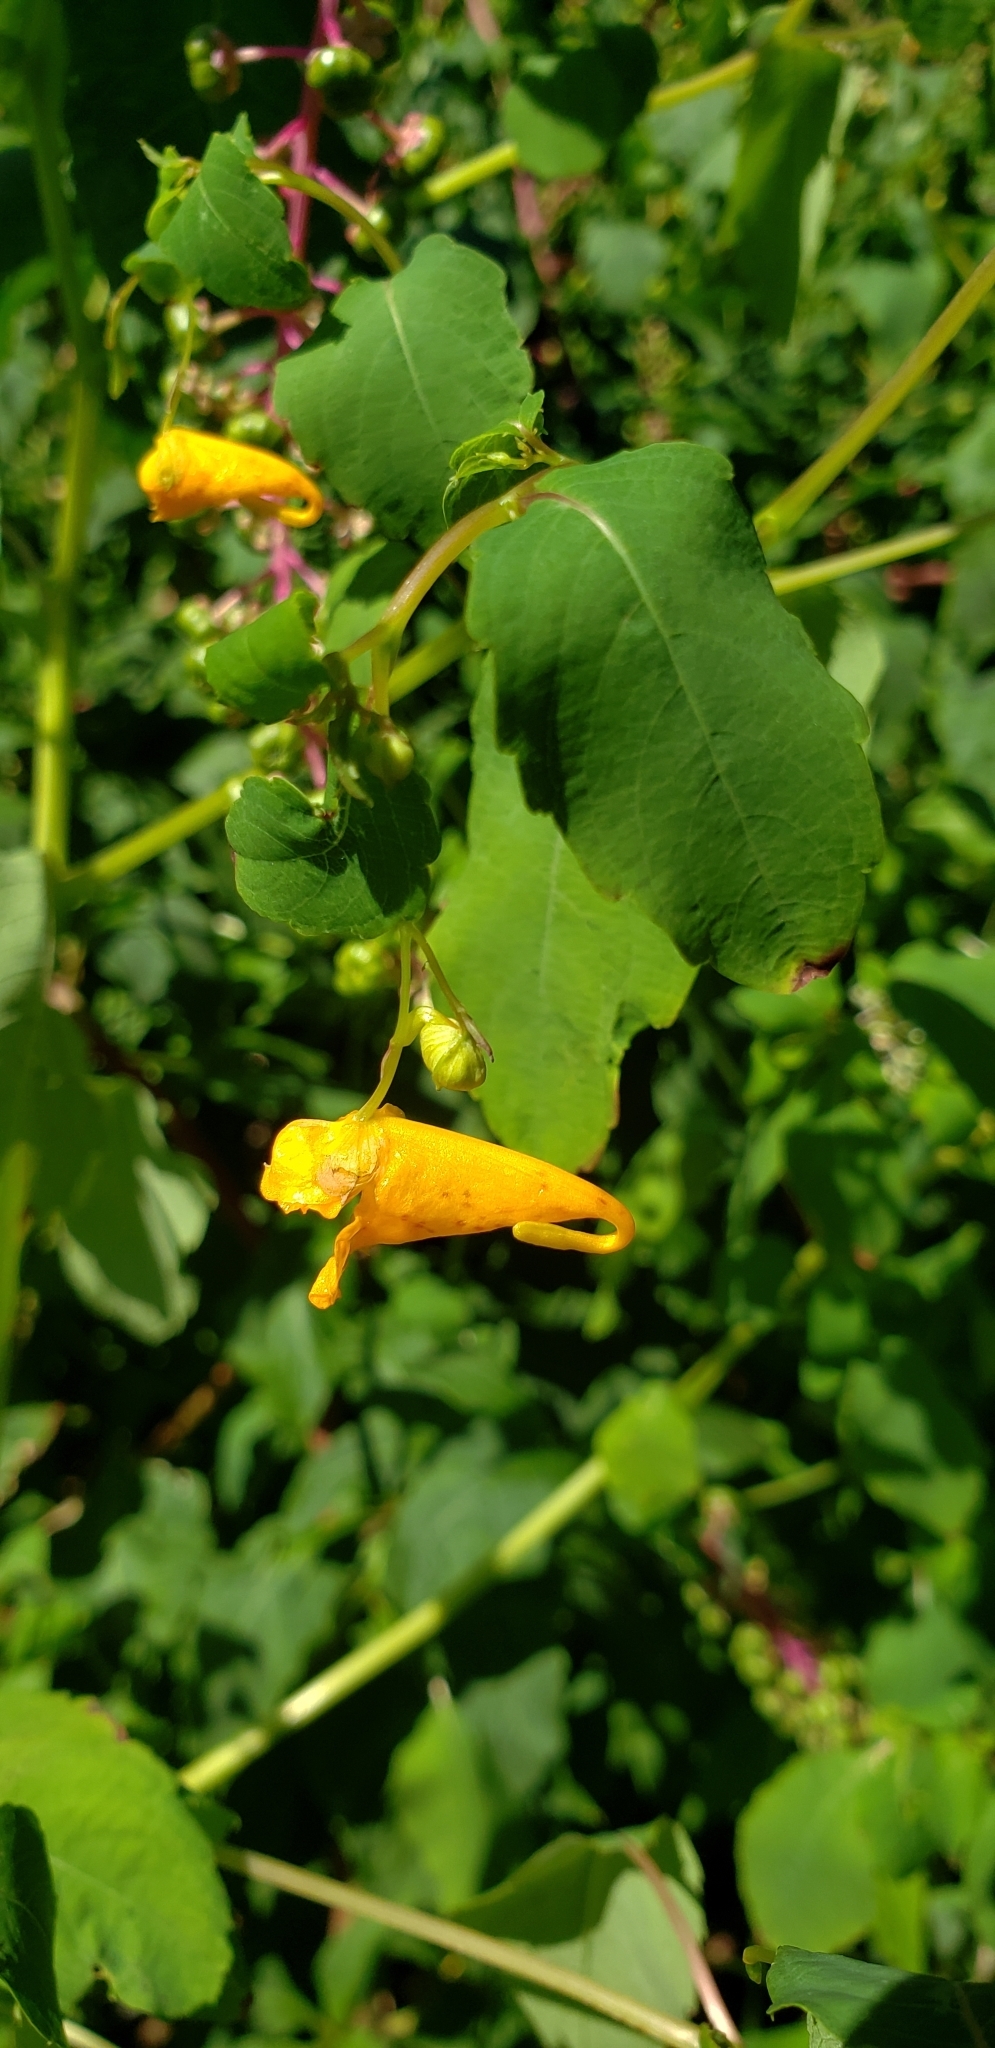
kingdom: Plantae
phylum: Tracheophyta
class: Magnoliopsida
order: Ericales
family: Balsaminaceae
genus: Impatiens
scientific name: Impatiens capensis
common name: Orange balsam
